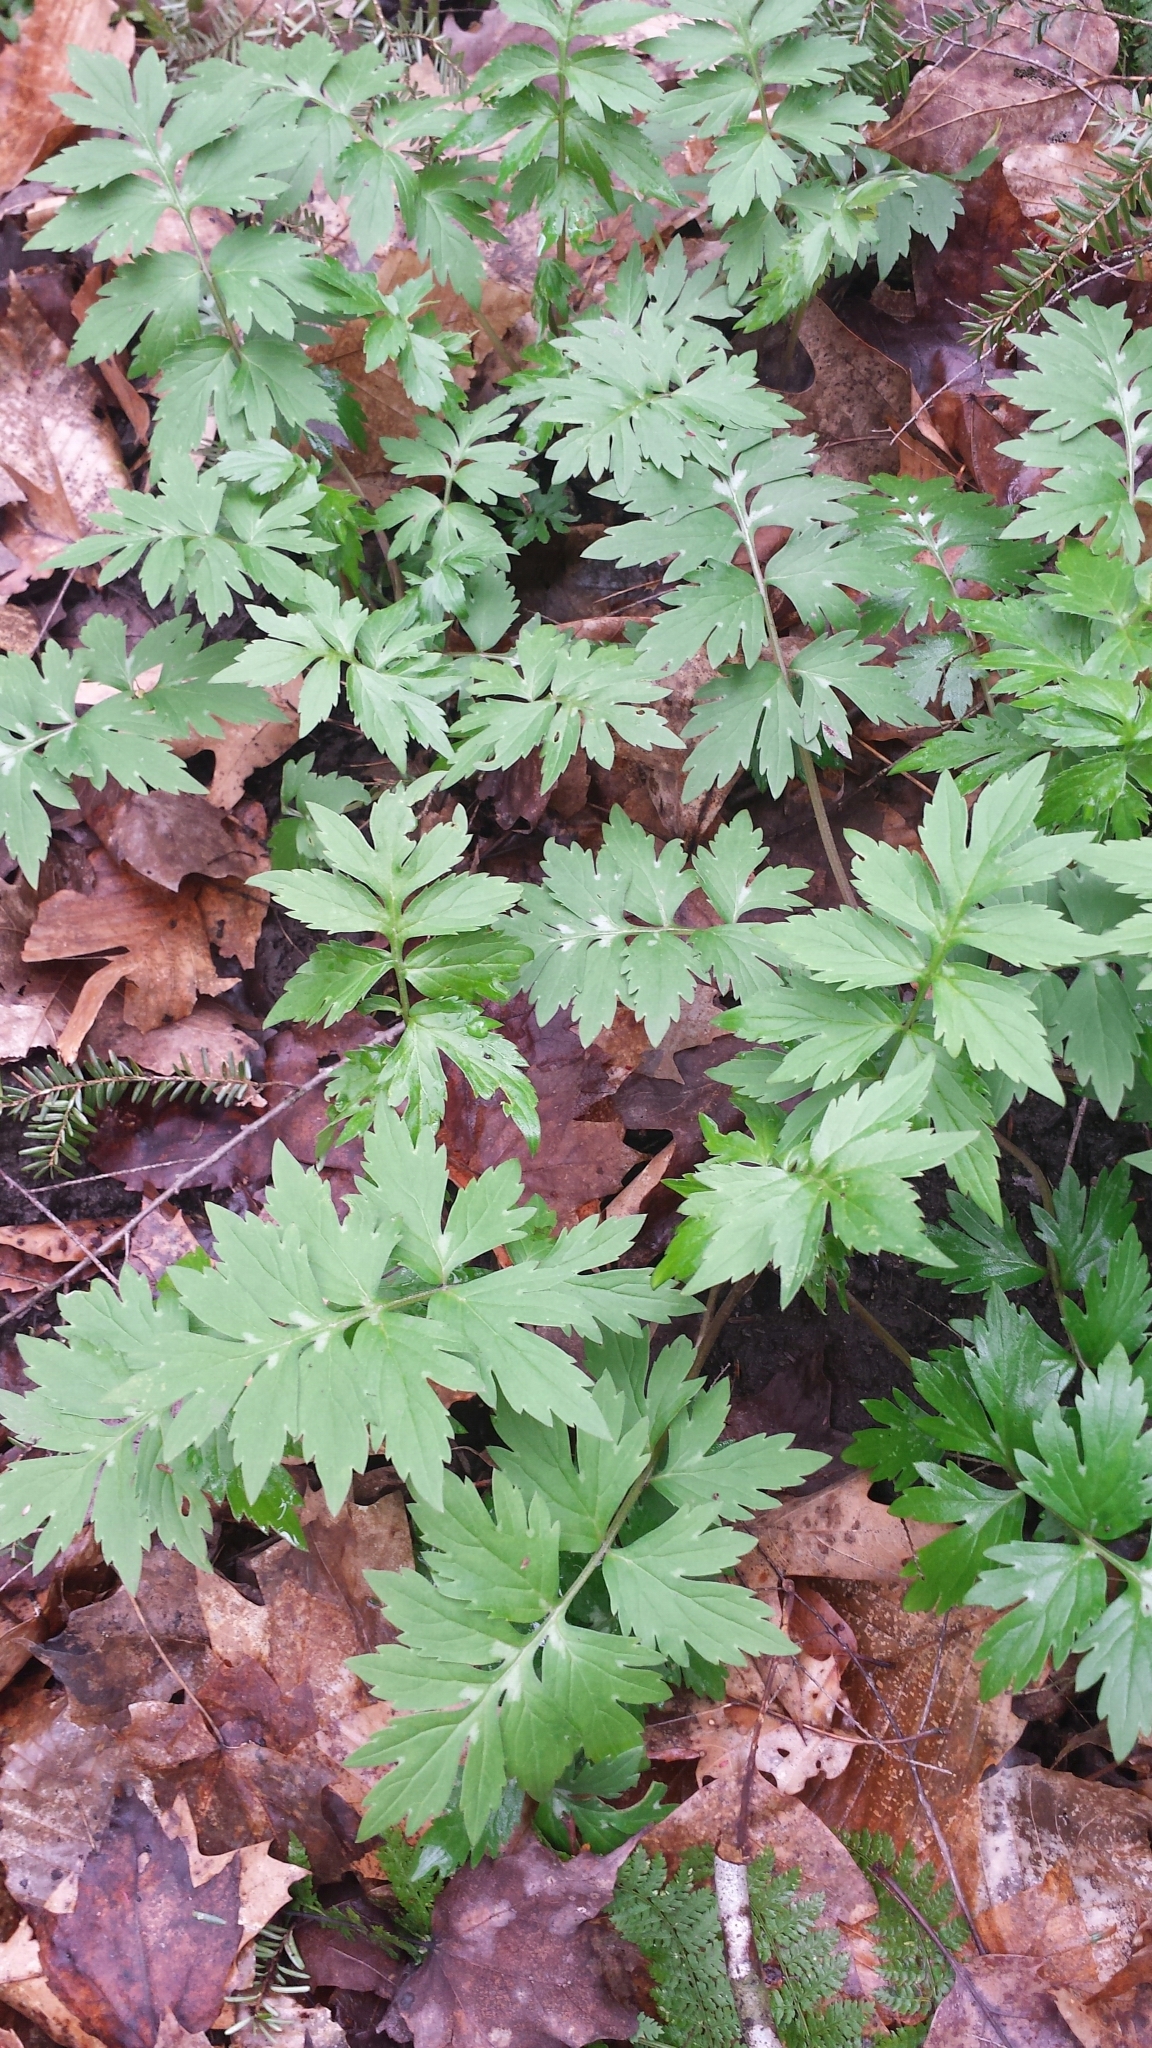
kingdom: Plantae
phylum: Tracheophyta
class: Magnoliopsida
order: Boraginales
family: Hydrophyllaceae
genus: Hydrophyllum
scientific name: Hydrophyllum virginianum
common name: Virginia waterleaf
